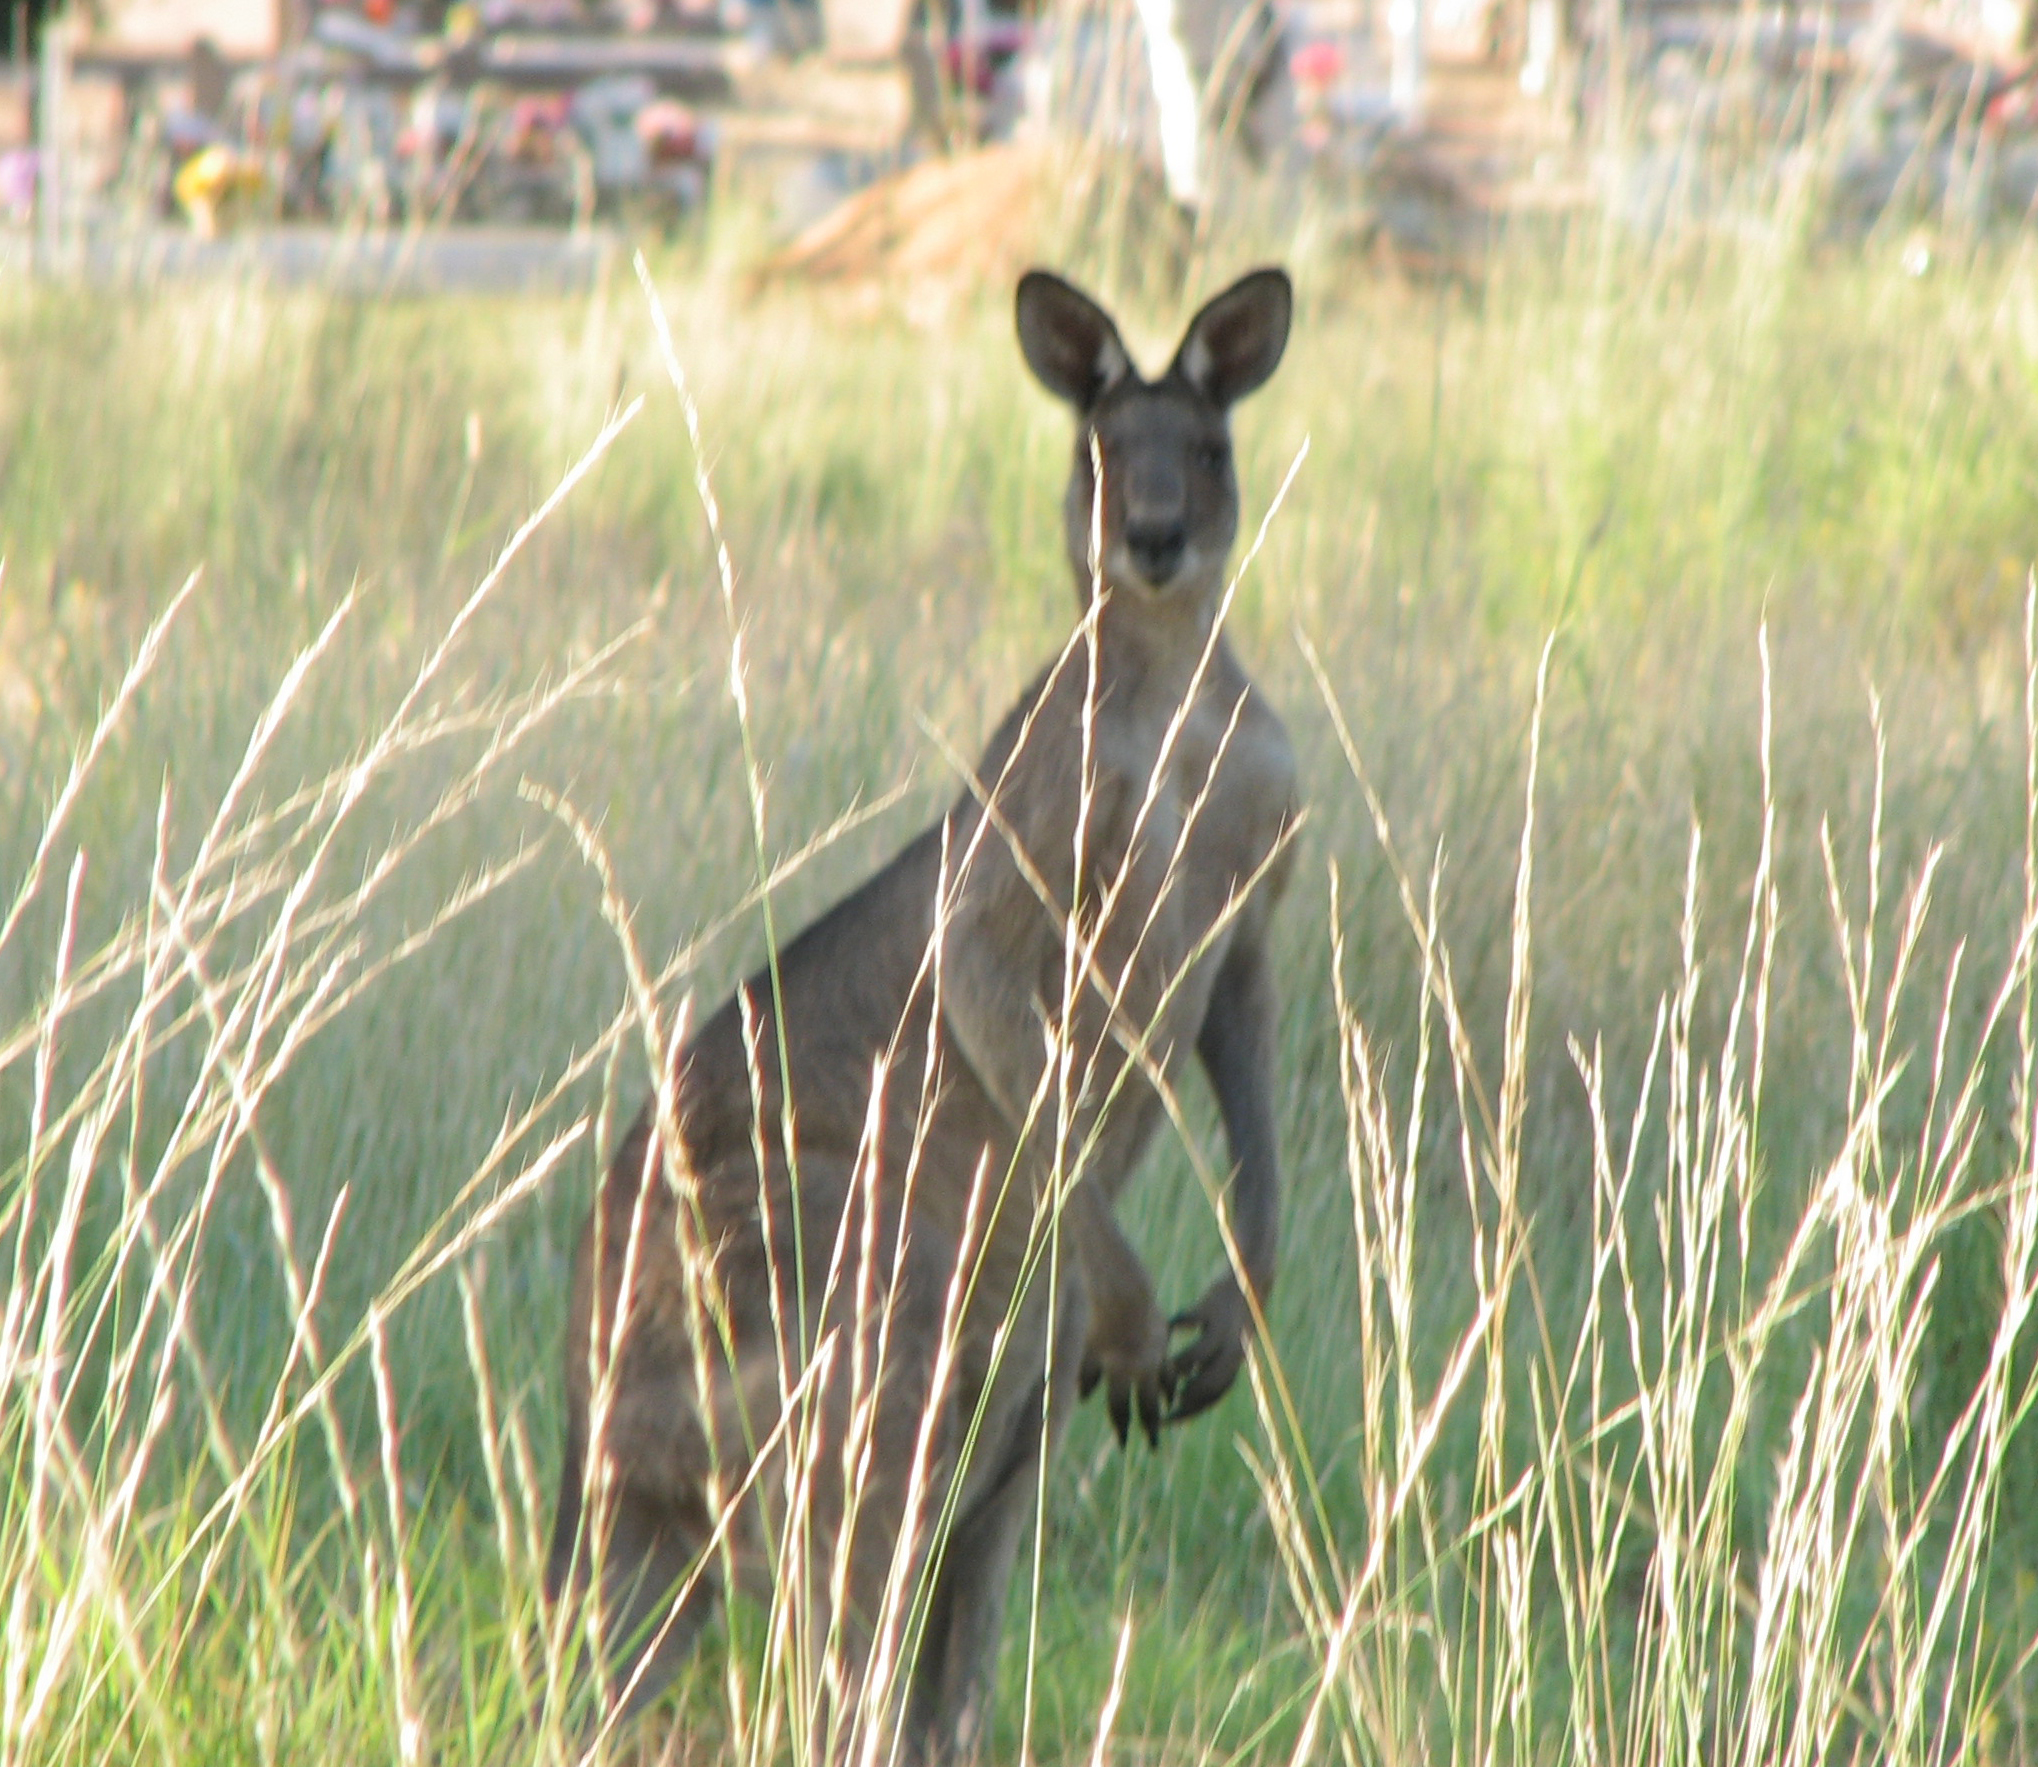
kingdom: Animalia
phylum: Chordata
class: Mammalia
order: Diprotodontia
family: Macropodidae
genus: Macropus
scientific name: Macropus giganteus
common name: Eastern grey kangaroo
